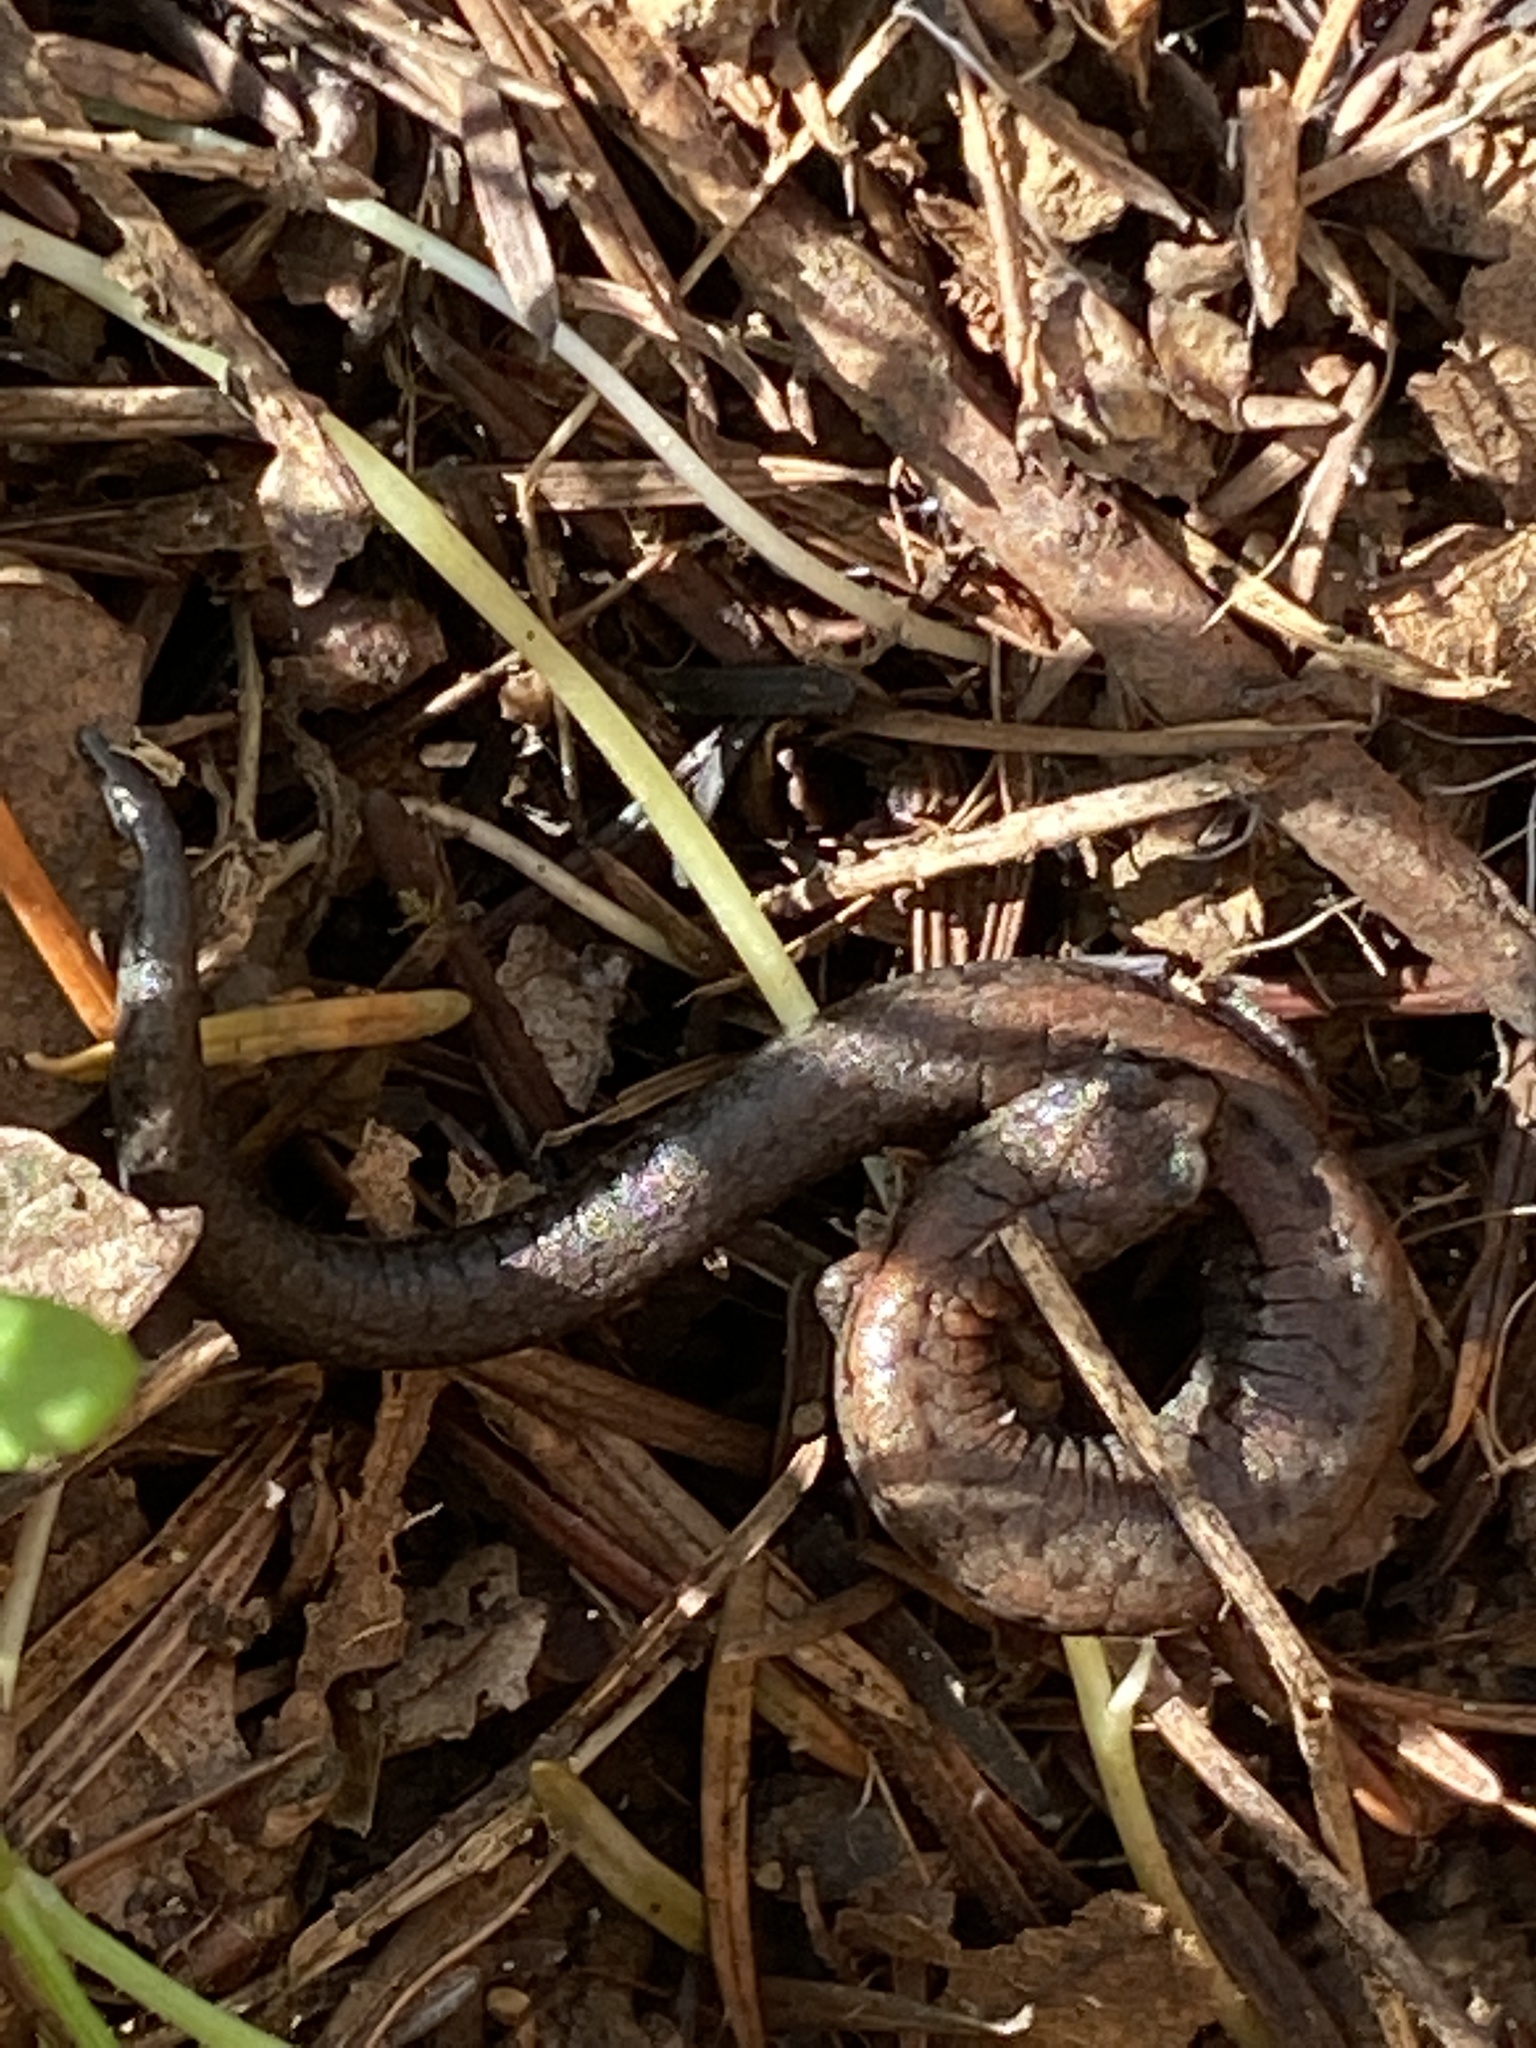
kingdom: Animalia
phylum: Chordata
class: Amphibia
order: Caudata
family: Plethodontidae
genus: Batrachoseps
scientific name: Batrachoseps attenuatus
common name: California slender salamander
